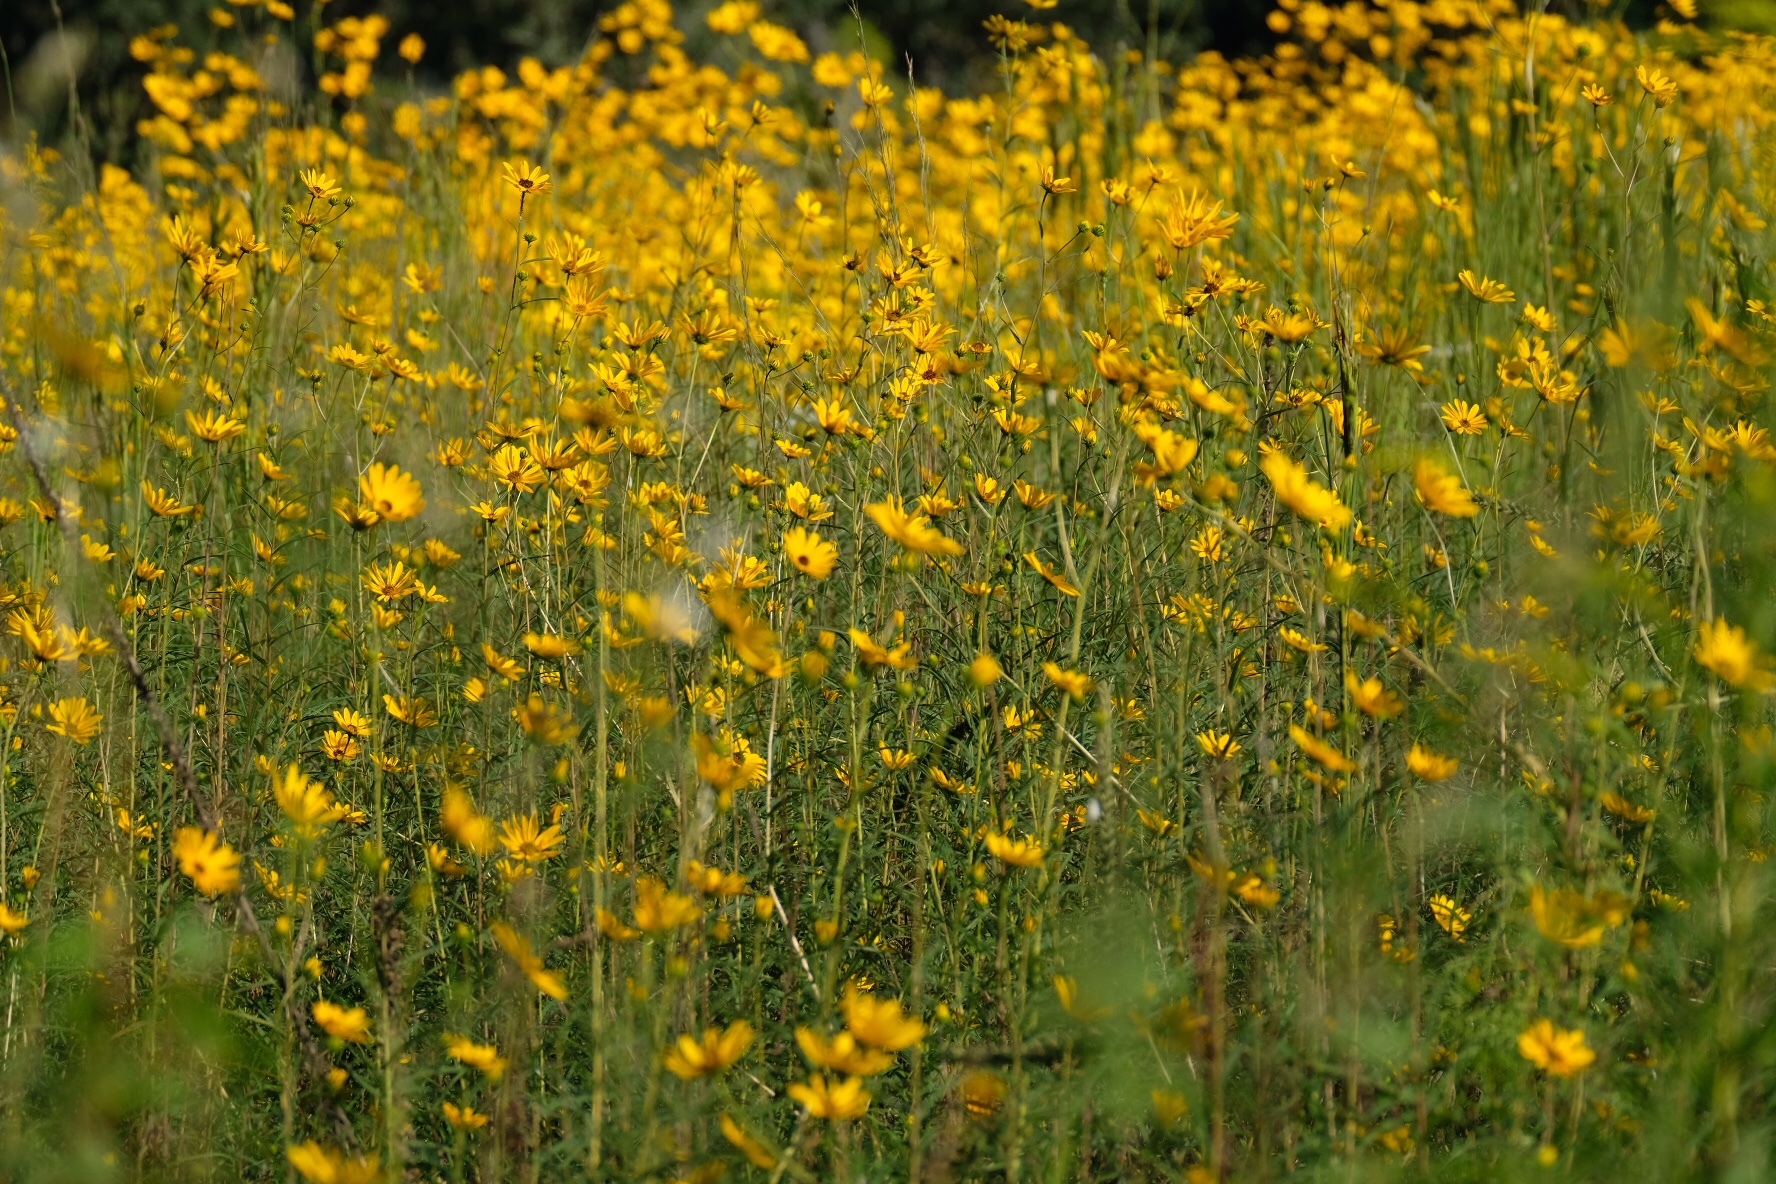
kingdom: Plantae
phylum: Tracheophyta
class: Magnoliopsida
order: Asterales
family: Asteraceae
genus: Helianthus
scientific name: Helianthus angustifolius
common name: Swamp sunflower
